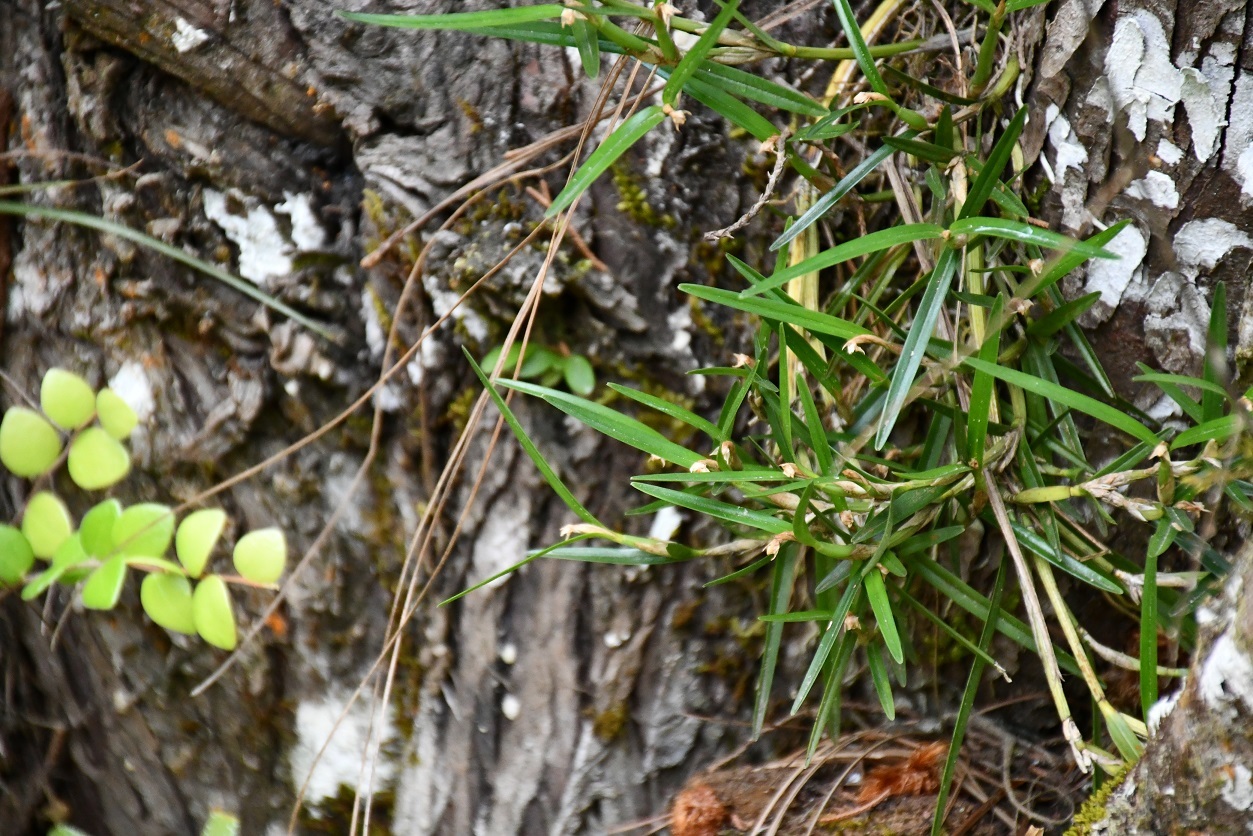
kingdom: Plantae
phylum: Tracheophyta
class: Liliopsida
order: Asparagales
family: Orchidaceae
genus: Scaphyglottis
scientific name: Scaphyglottis fasciculata
